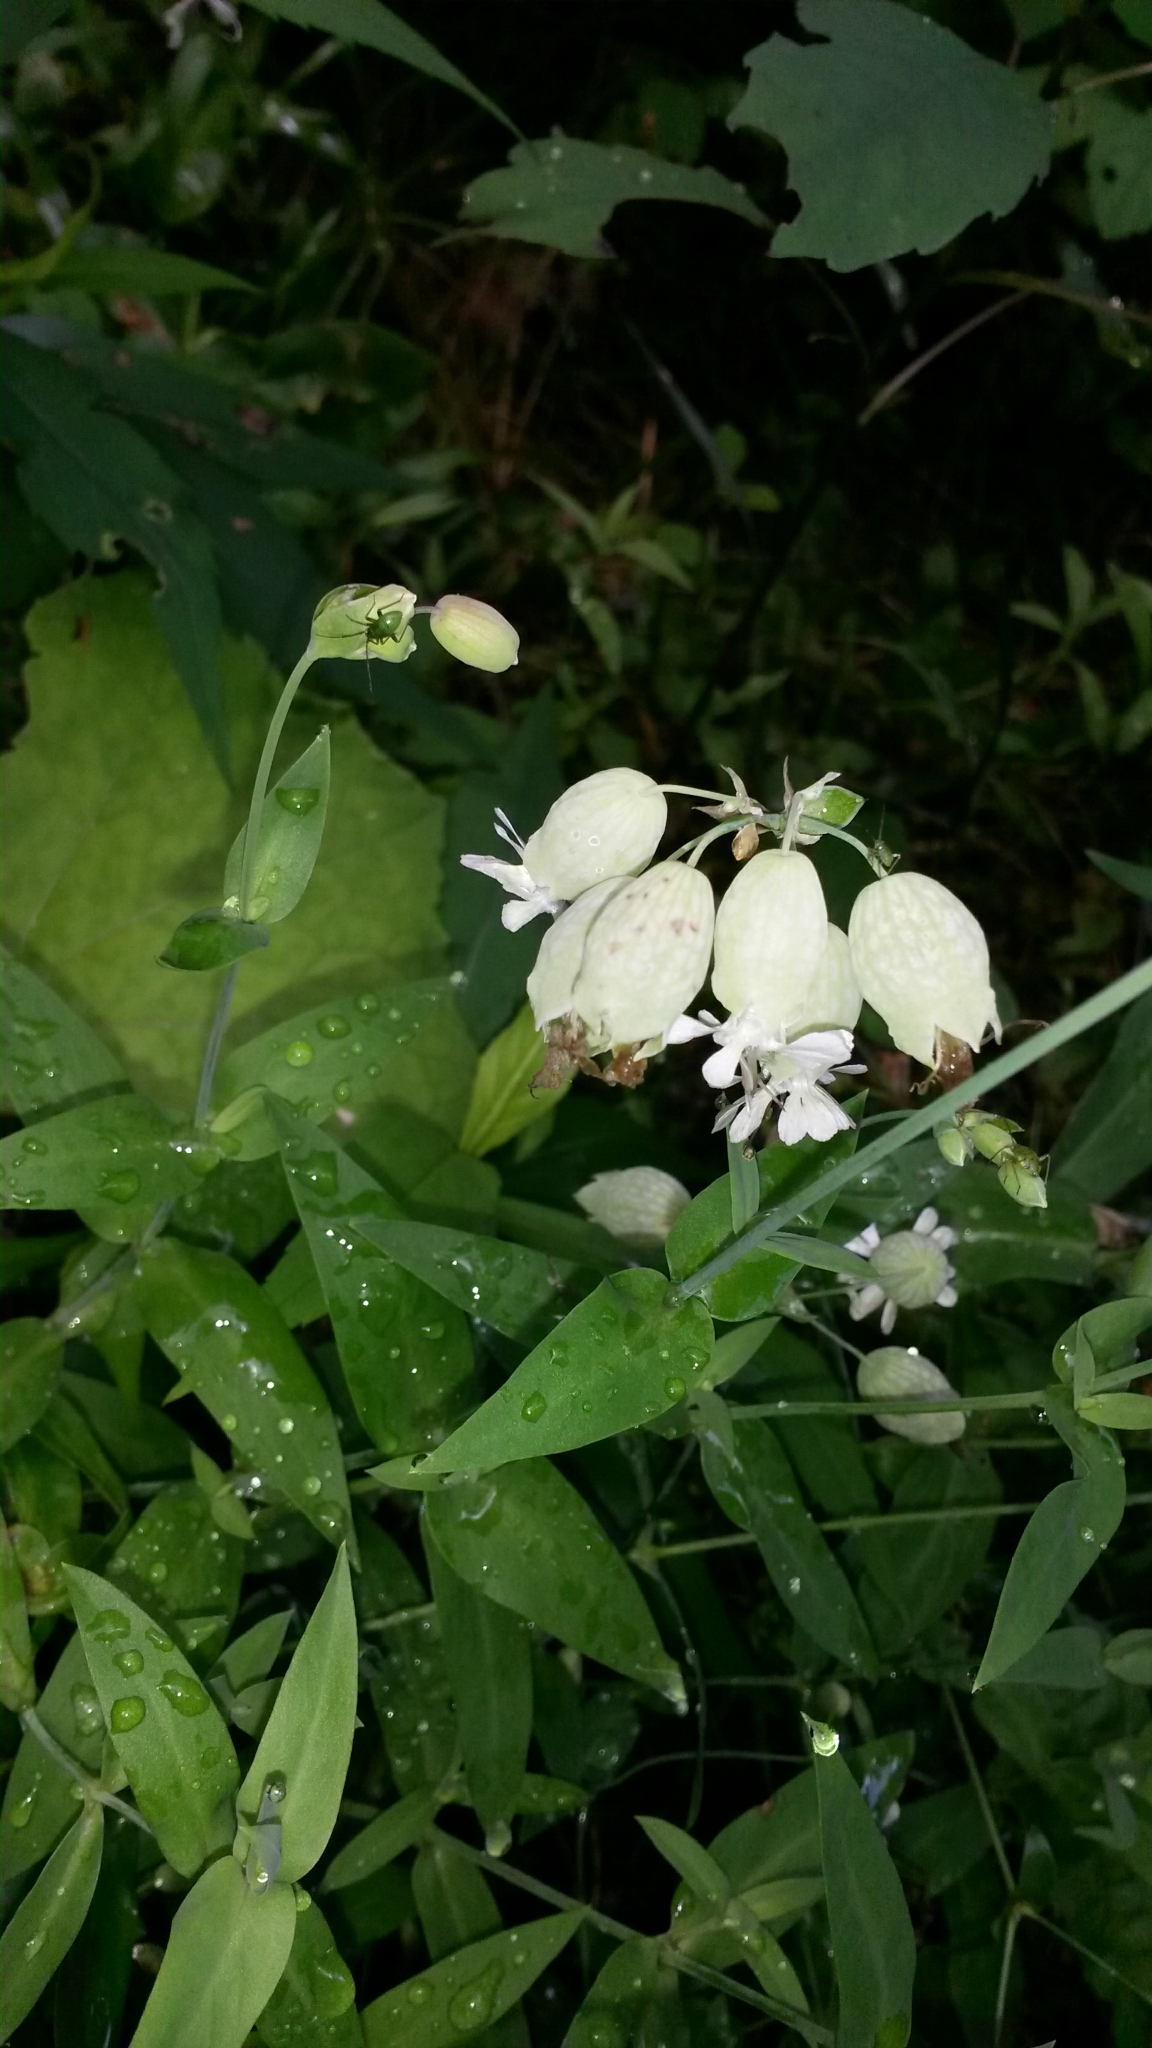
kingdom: Plantae
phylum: Tracheophyta
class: Magnoliopsida
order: Caryophyllales
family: Caryophyllaceae
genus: Silene
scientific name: Silene vulgaris
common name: Bladder campion
